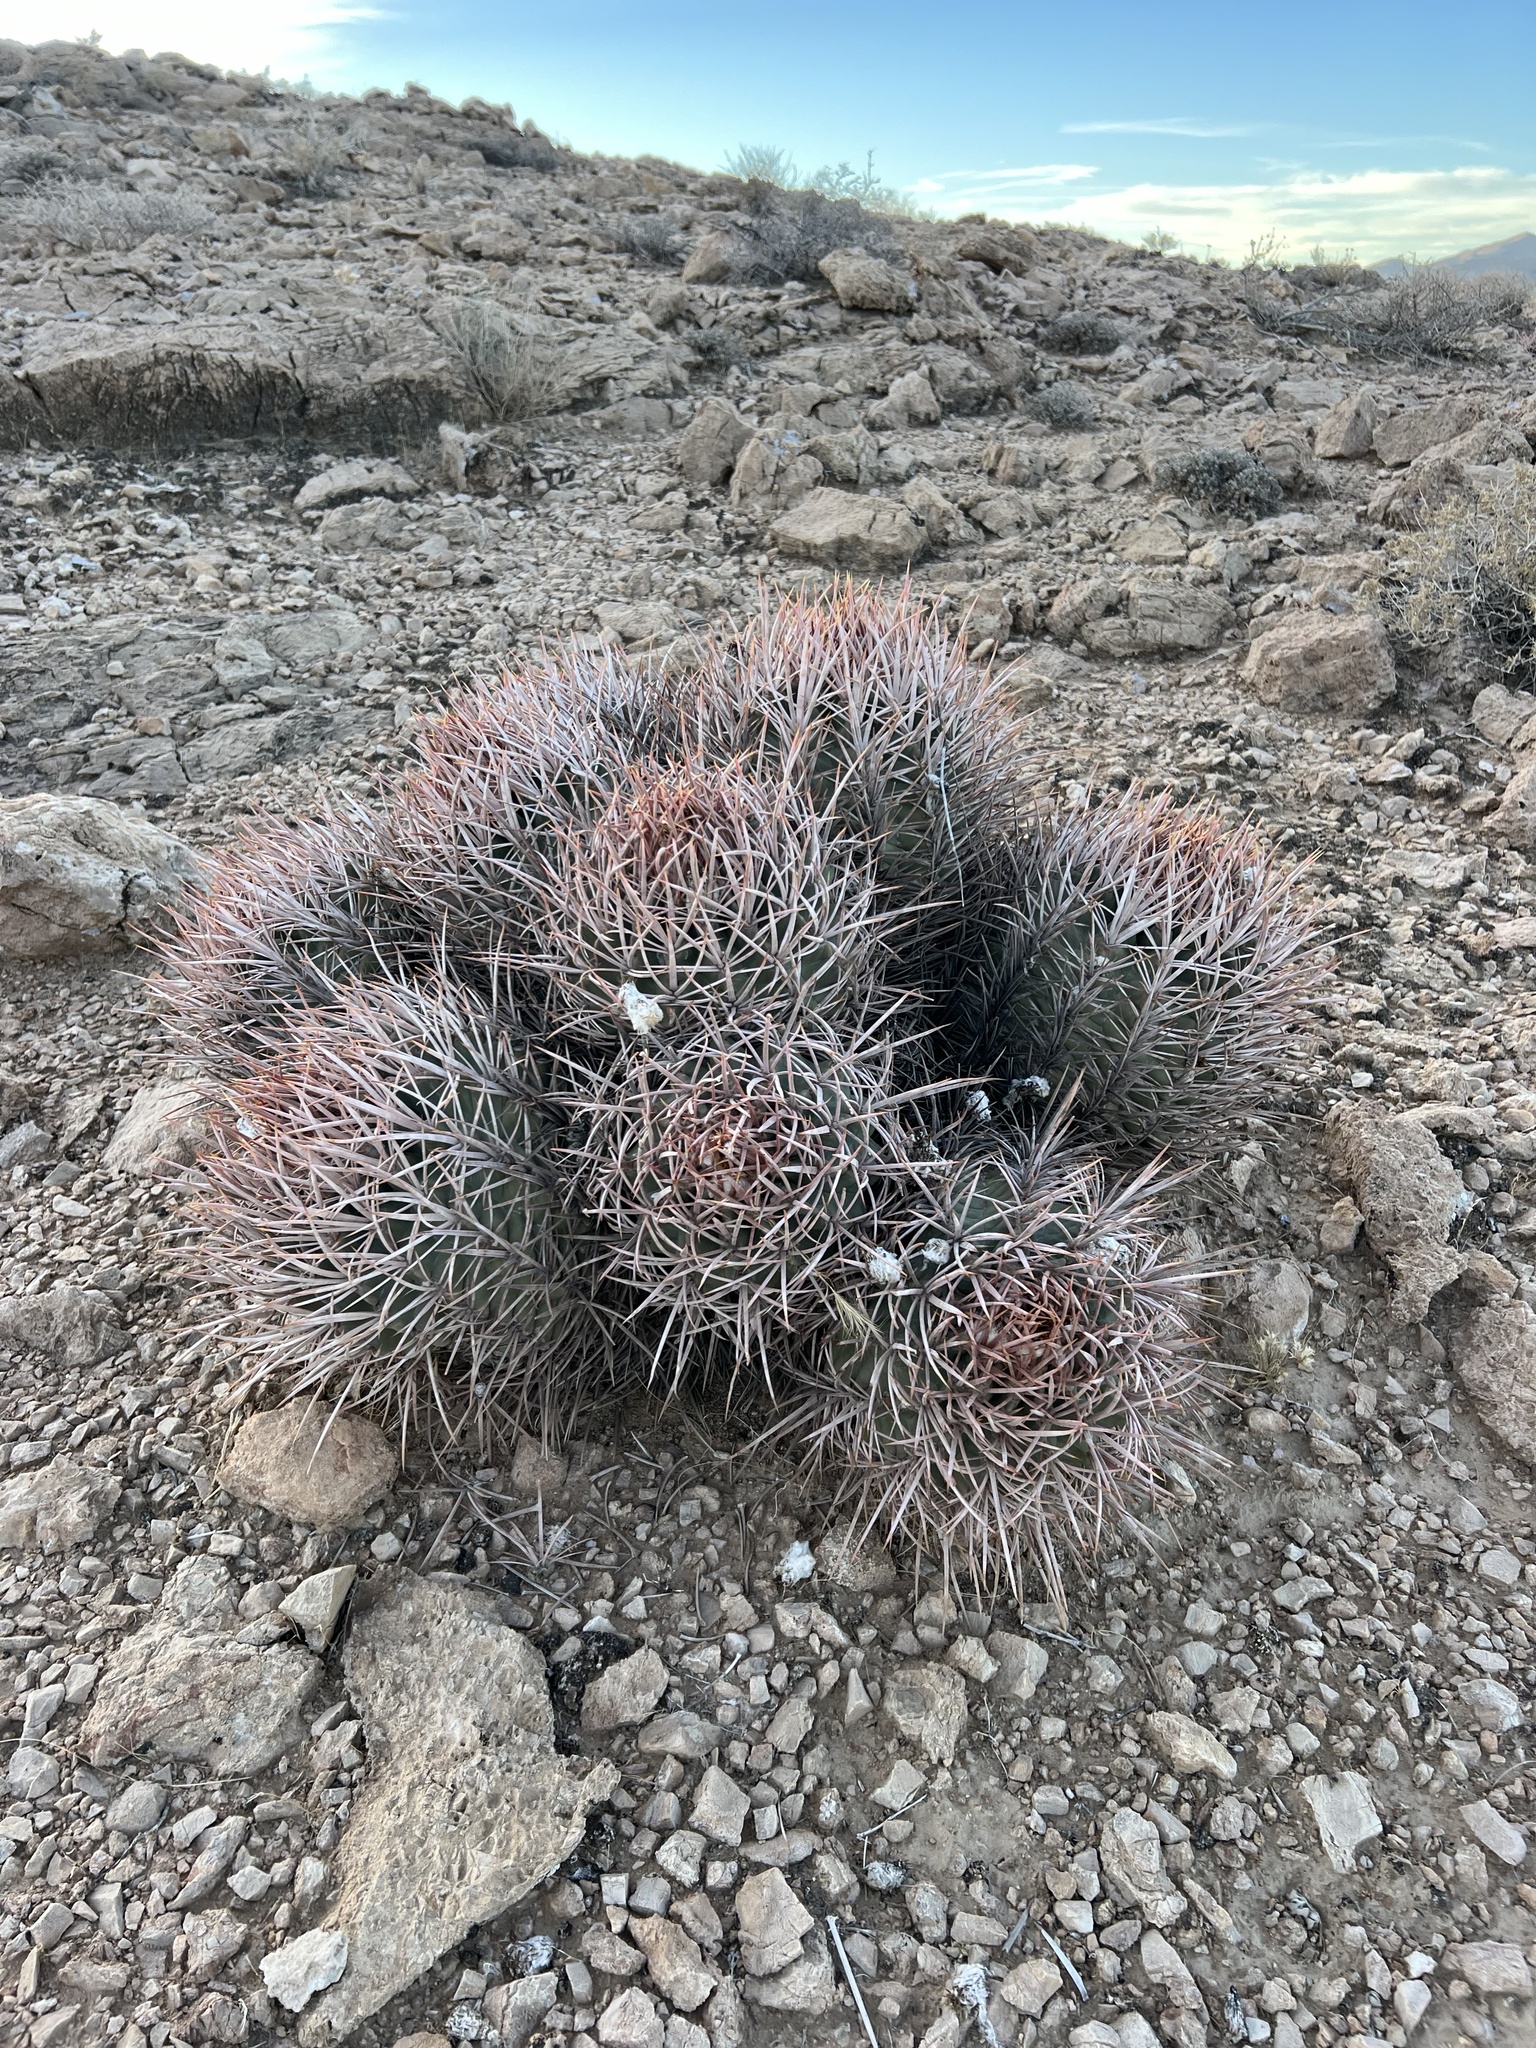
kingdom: Plantae
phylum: Tracheophyta
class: Magnoliopsida
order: Caryophyllales
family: Cactaceae
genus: Echinocactus
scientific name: Echinocactus polycephalus
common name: Cottontop cactus
